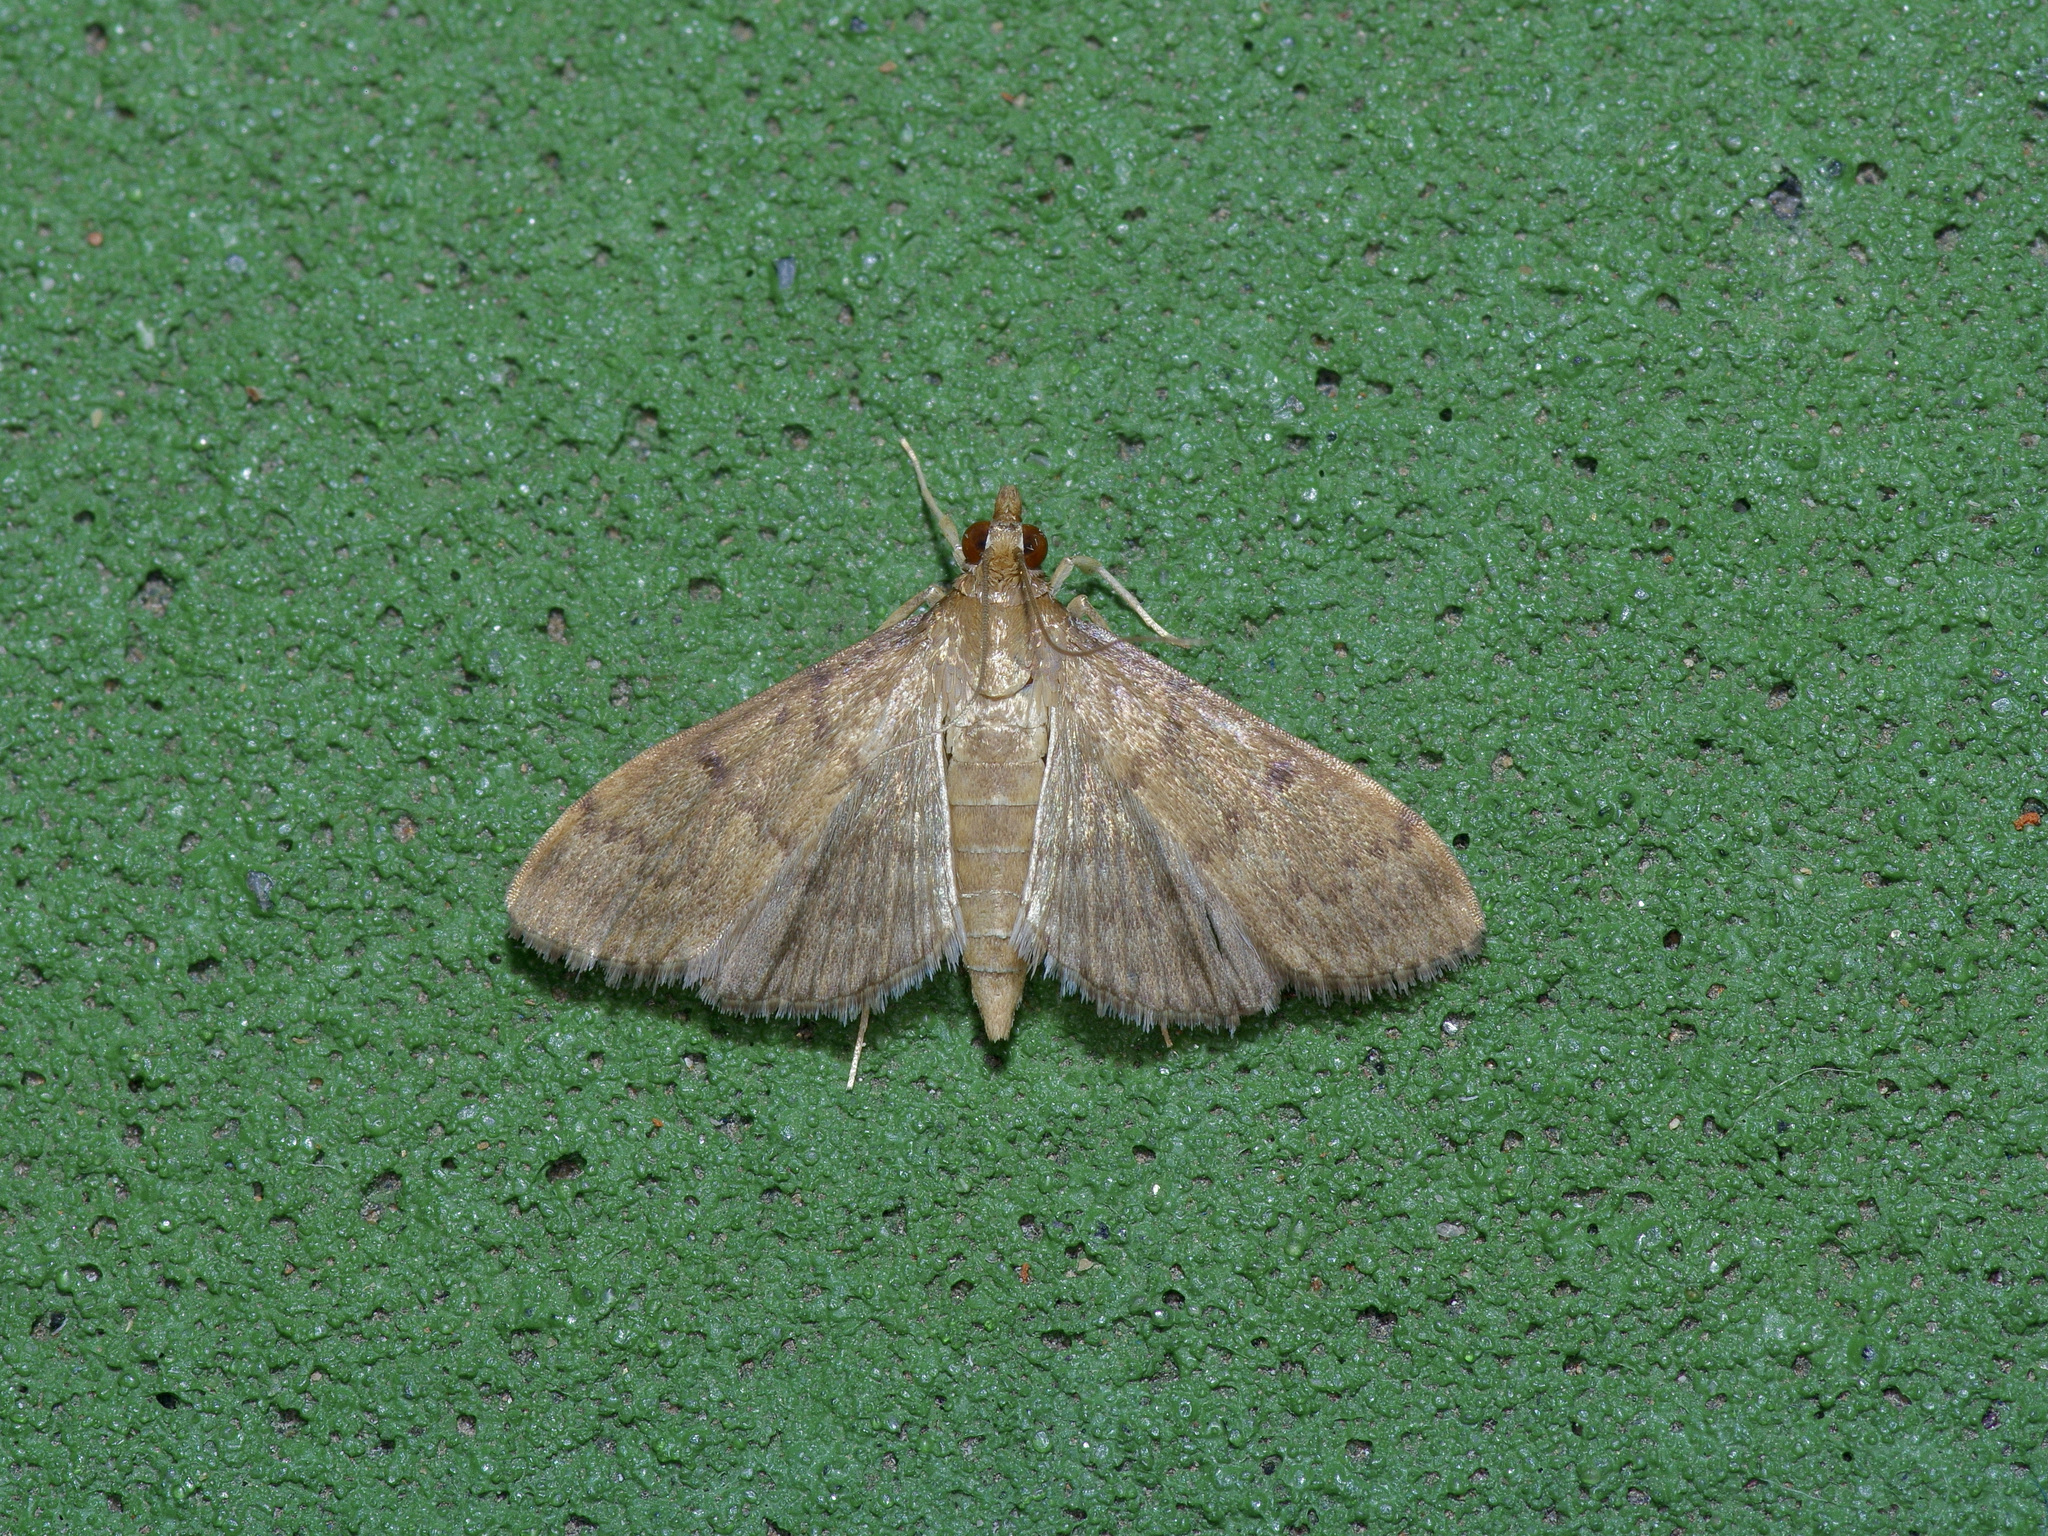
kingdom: Animalia
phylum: Arthropoda
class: Insecta
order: Lepidoptera
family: Crambidae
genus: Herpetogramma
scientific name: Herpetogramma phaeopteralis
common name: Dusky herpetogramma moth
